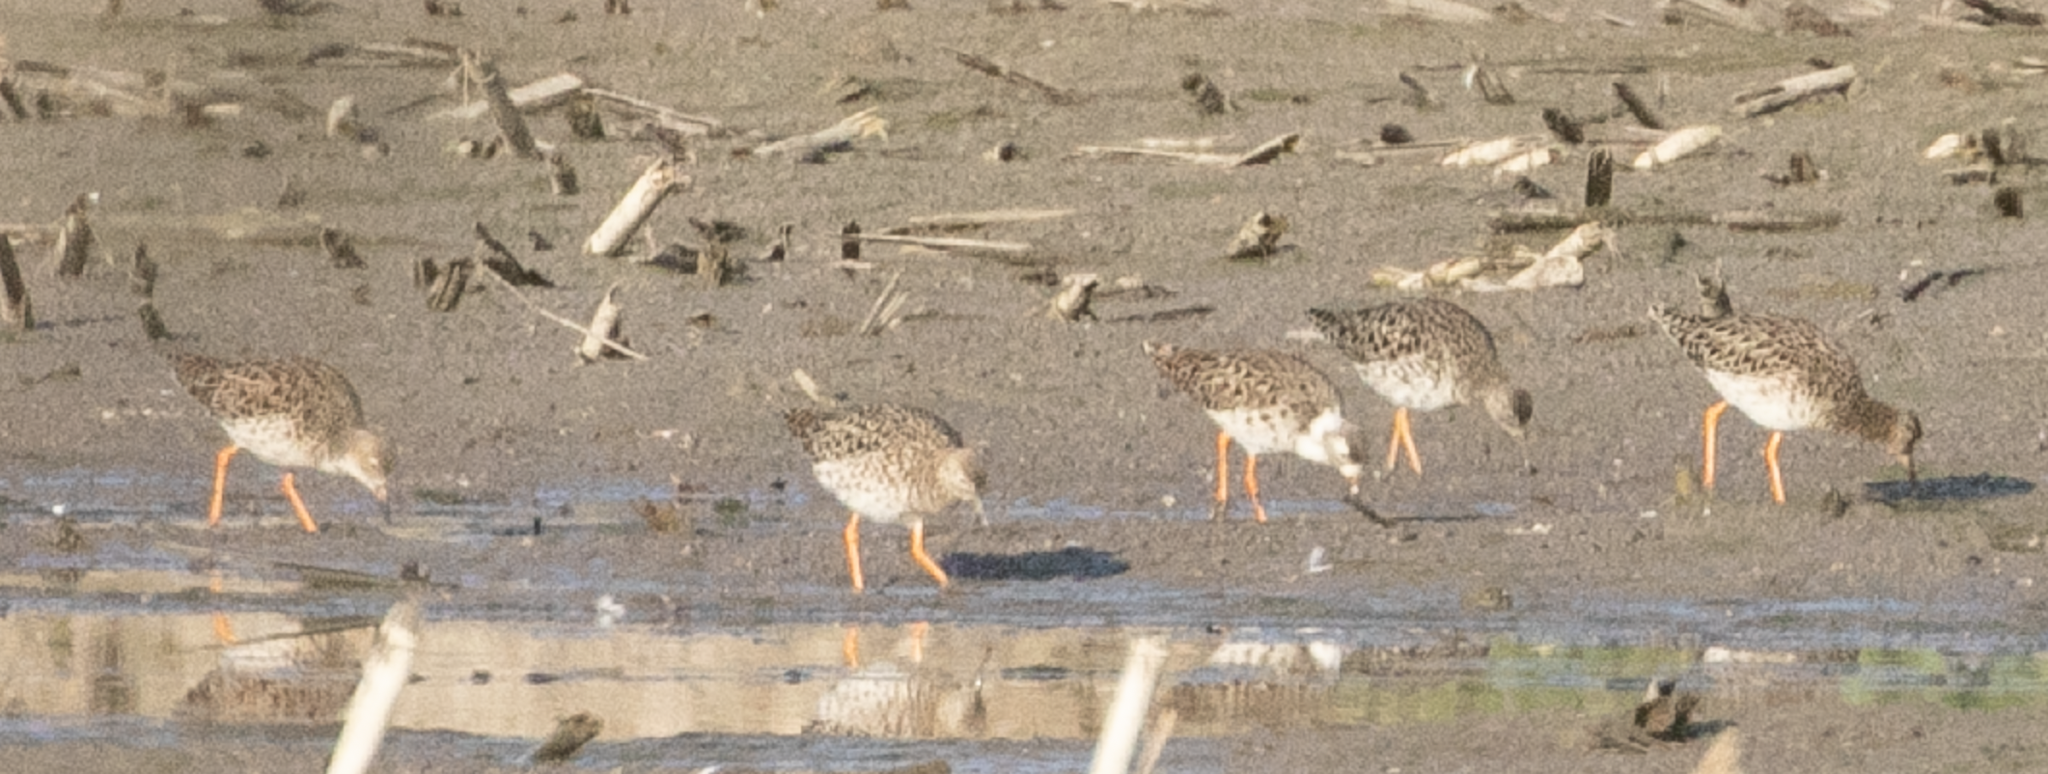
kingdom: Animalia
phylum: Chordata
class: Aves
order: Charadriiformes
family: Scolopacidae
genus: Calidris
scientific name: Calidris pugnax
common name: Ruff
